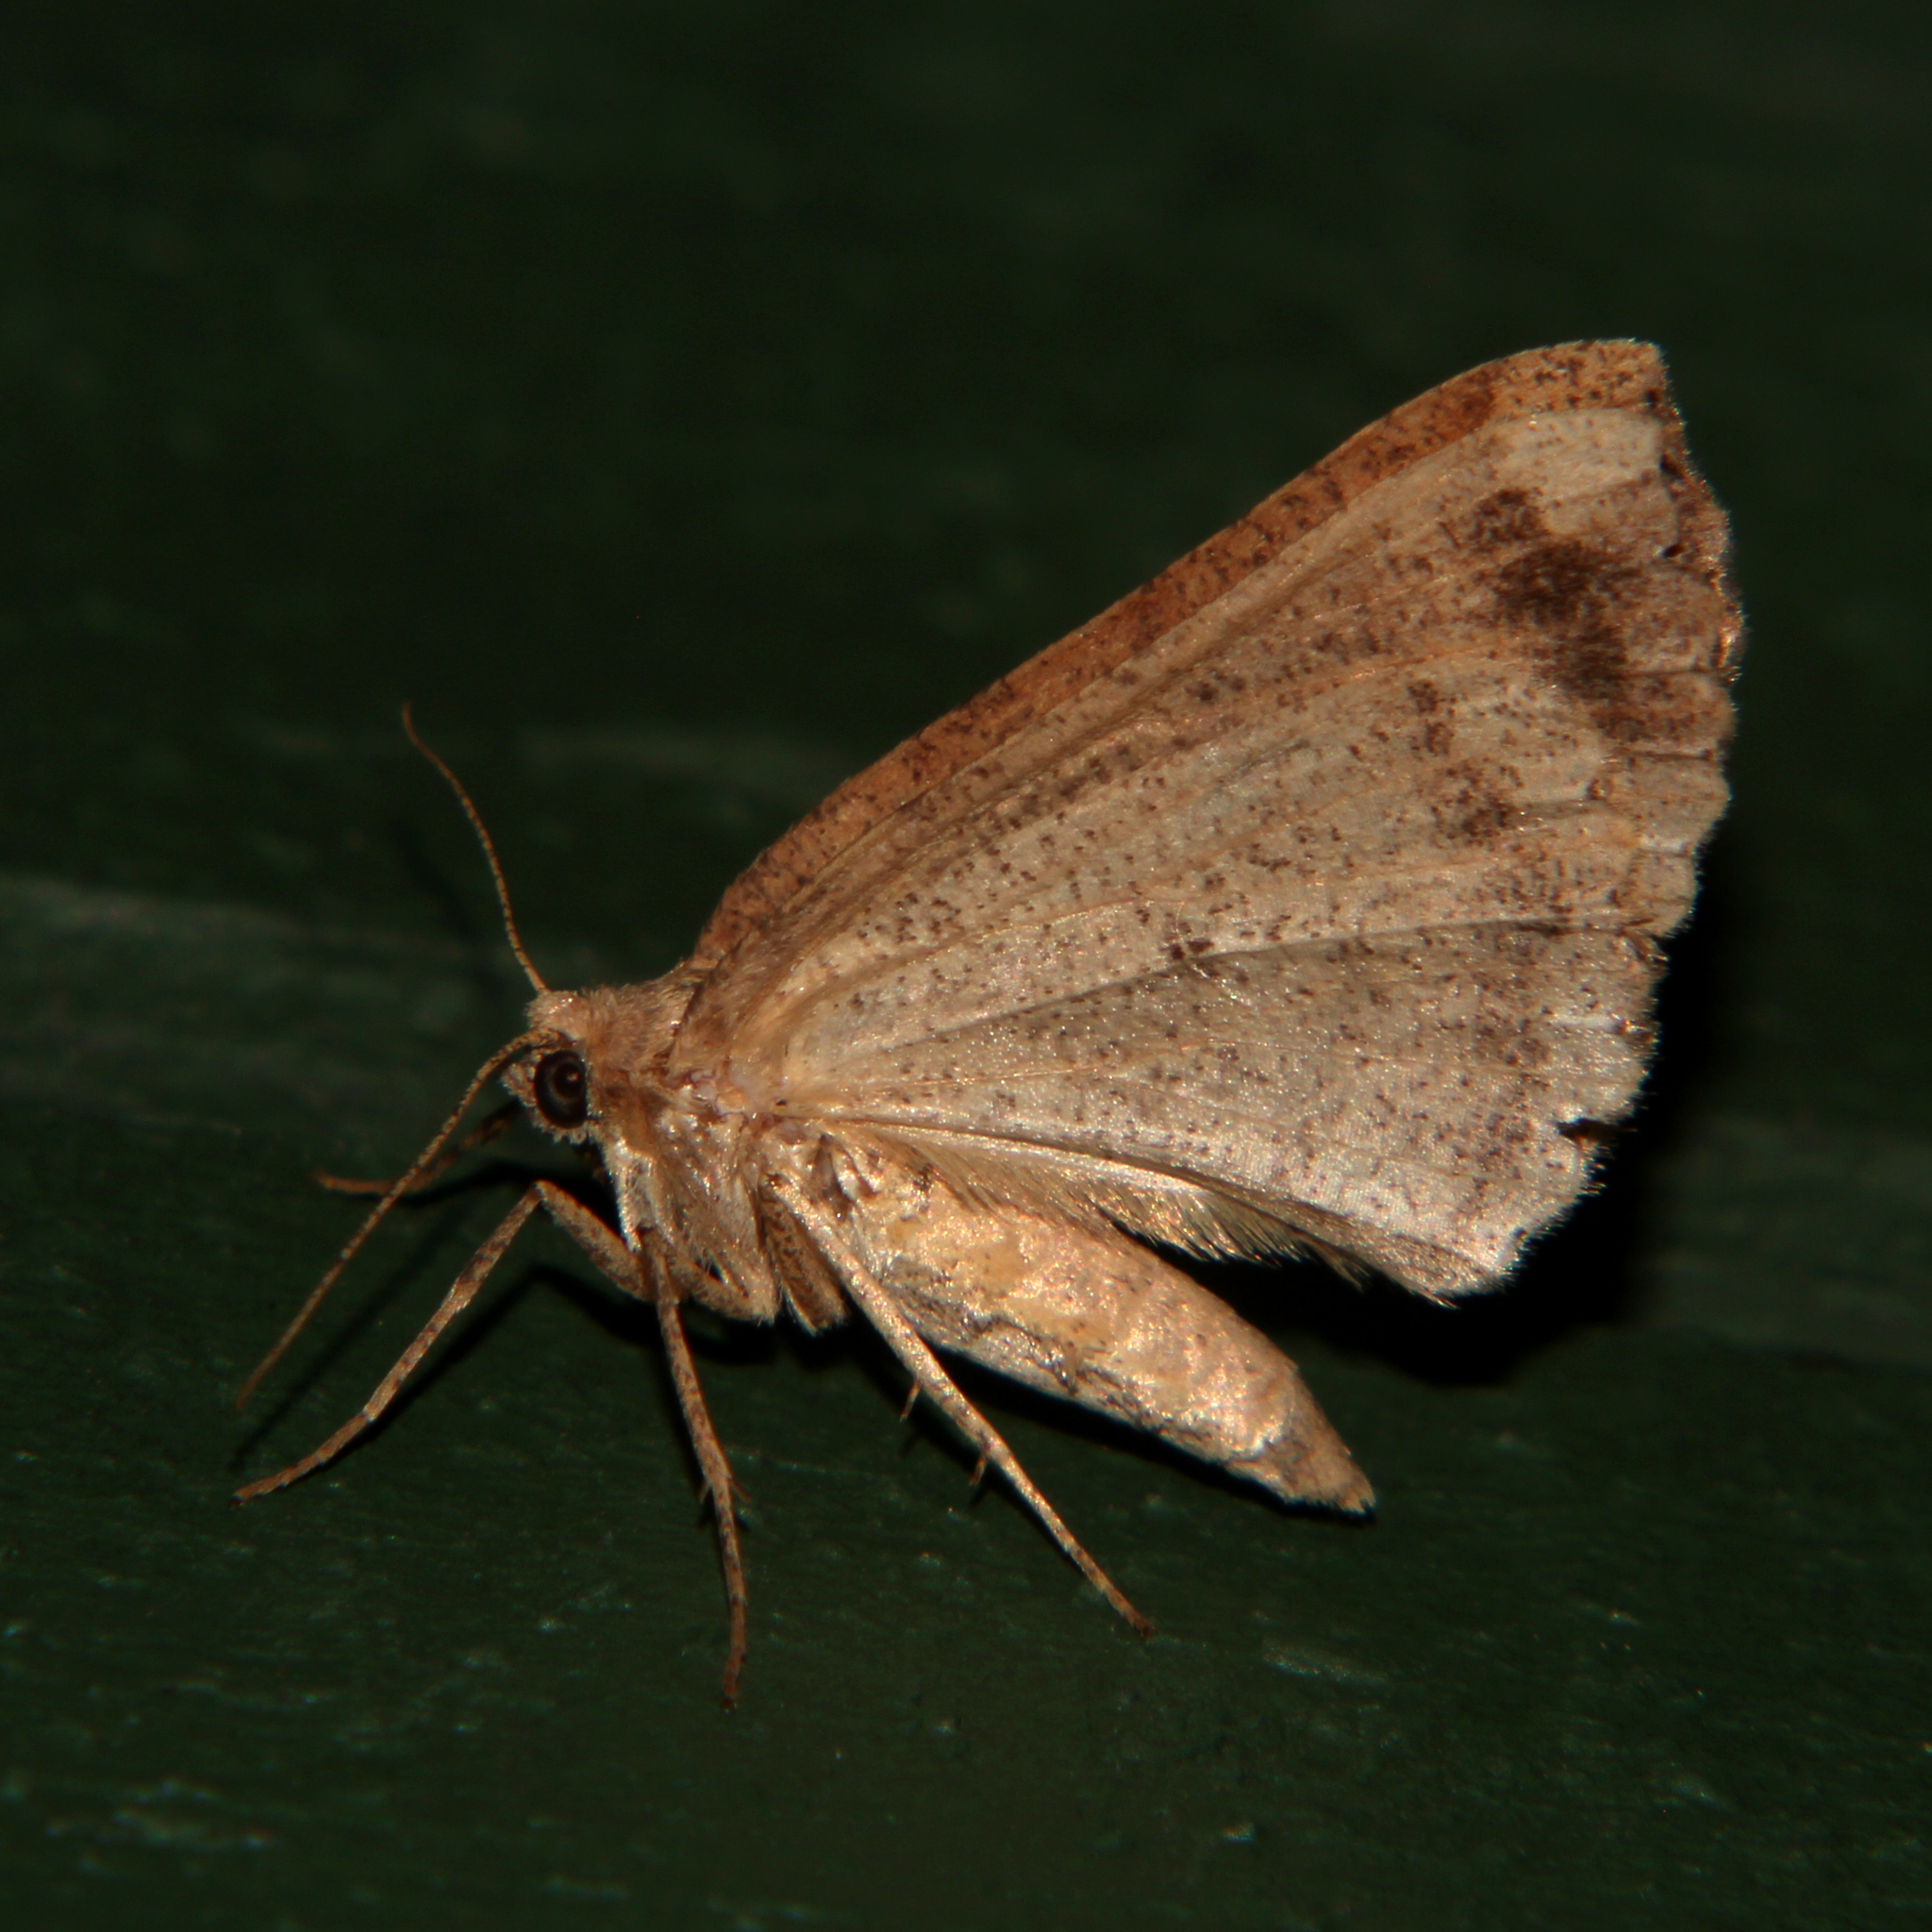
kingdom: Animalia
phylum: Arthropoda
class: Insecta
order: Lepidoptera
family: Geometridae
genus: Cleora
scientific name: Cleora scriptaria
